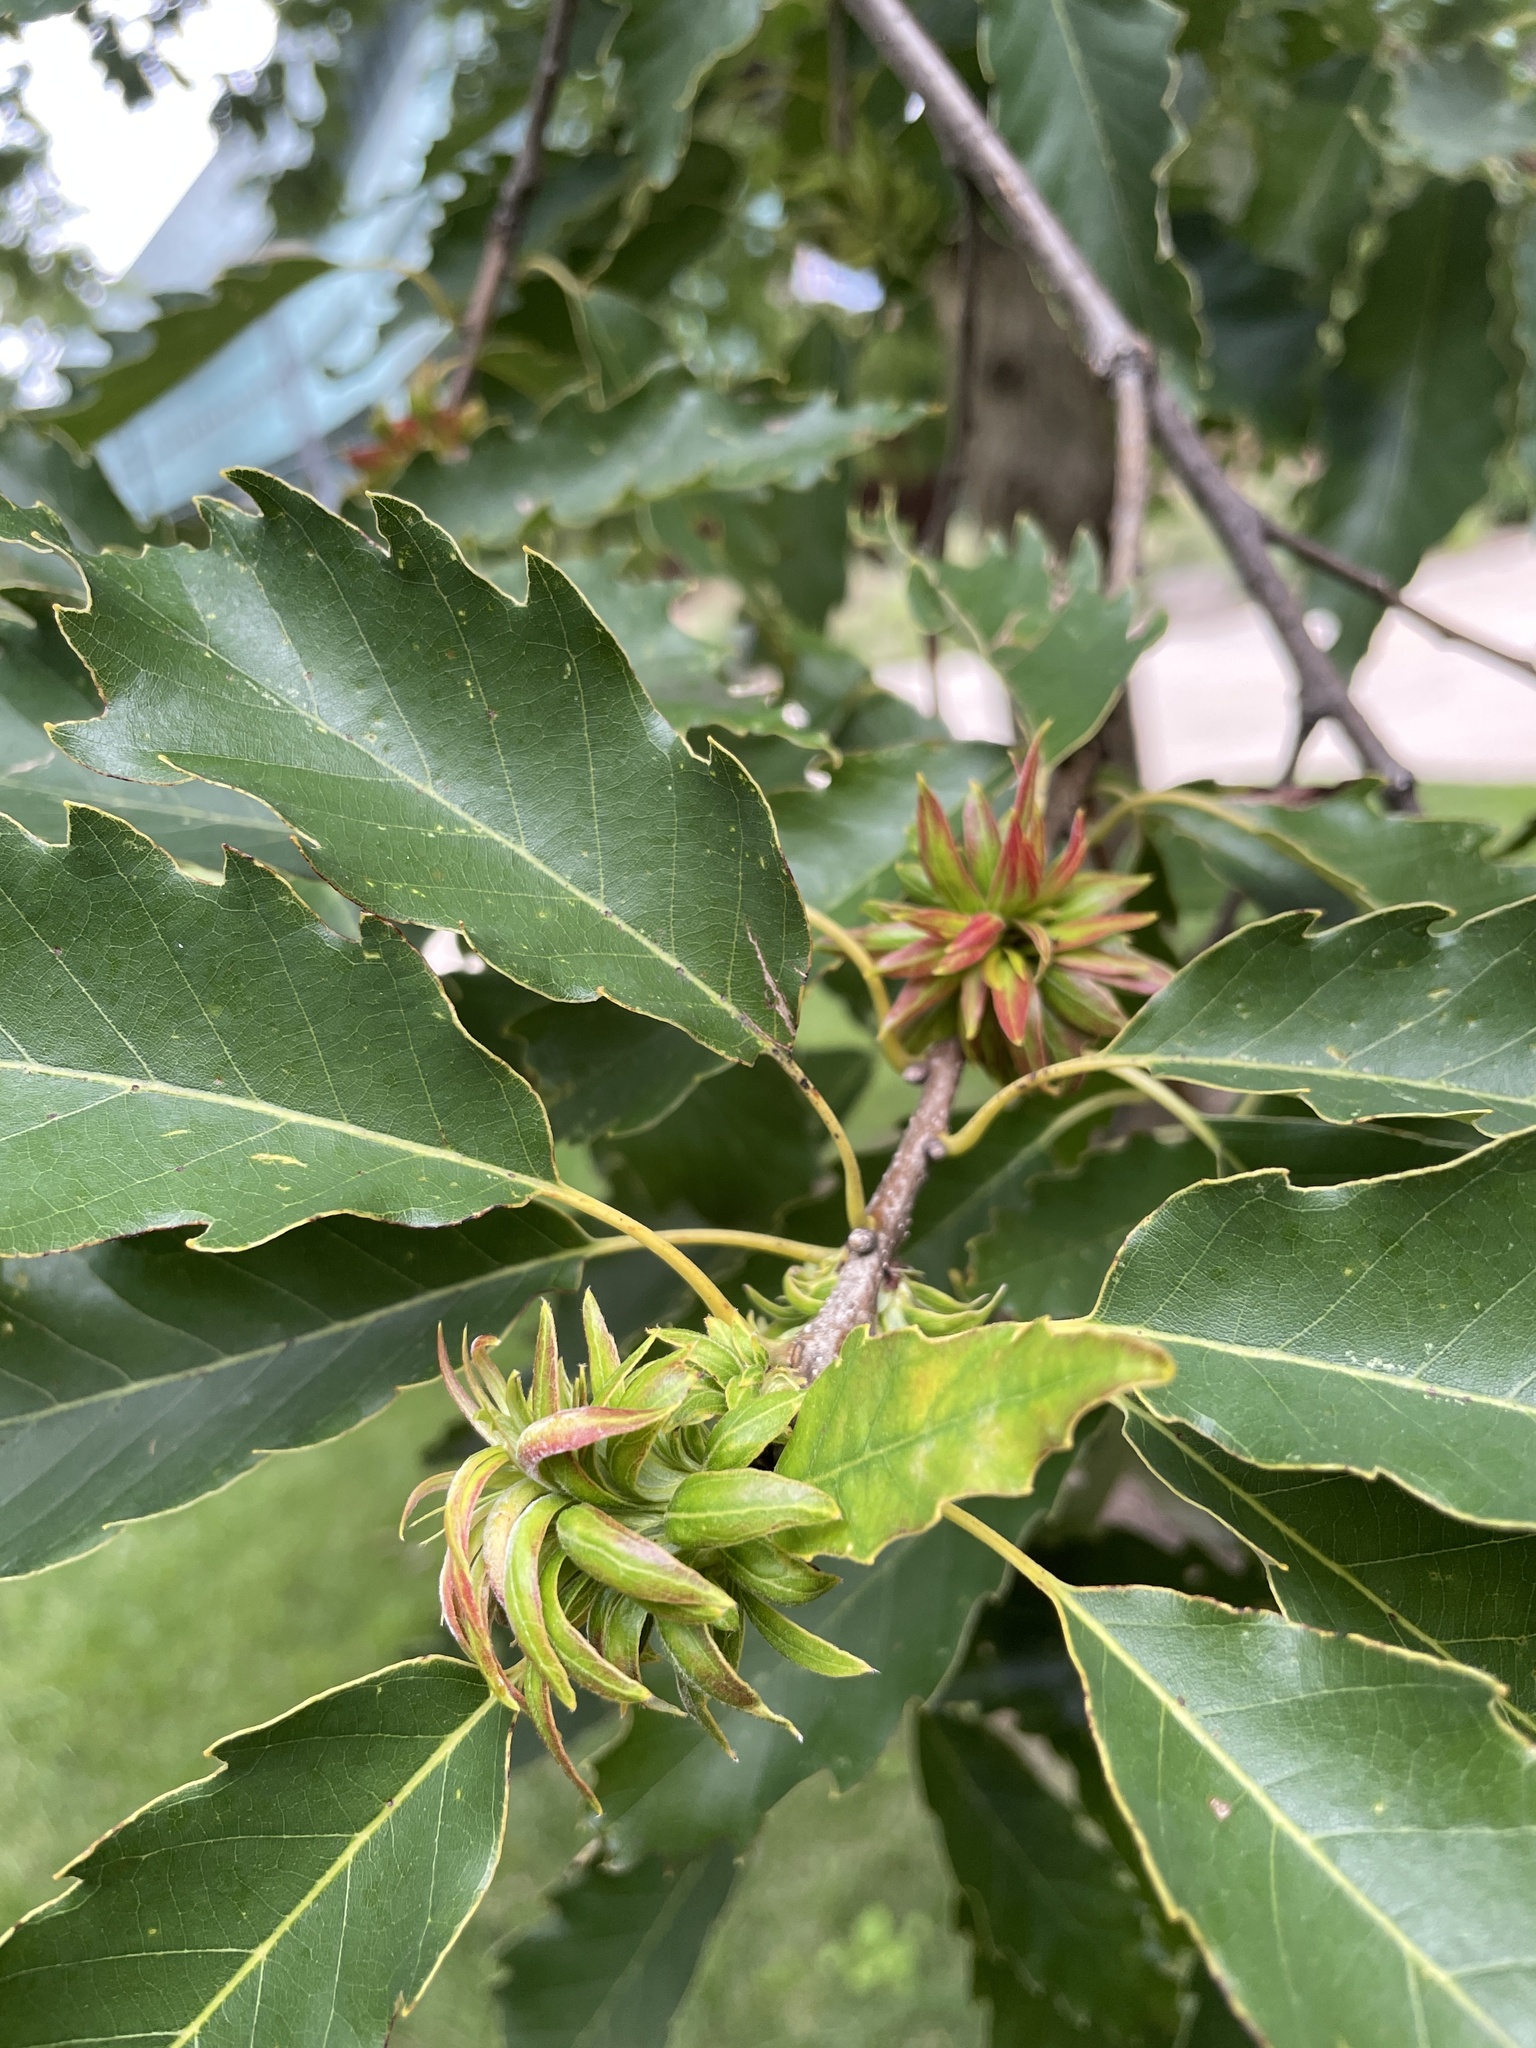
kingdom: Animalia
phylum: Arthropoda
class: Insecta
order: Hymenoptera
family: Cynipidae
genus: Andricus
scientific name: Andricus
